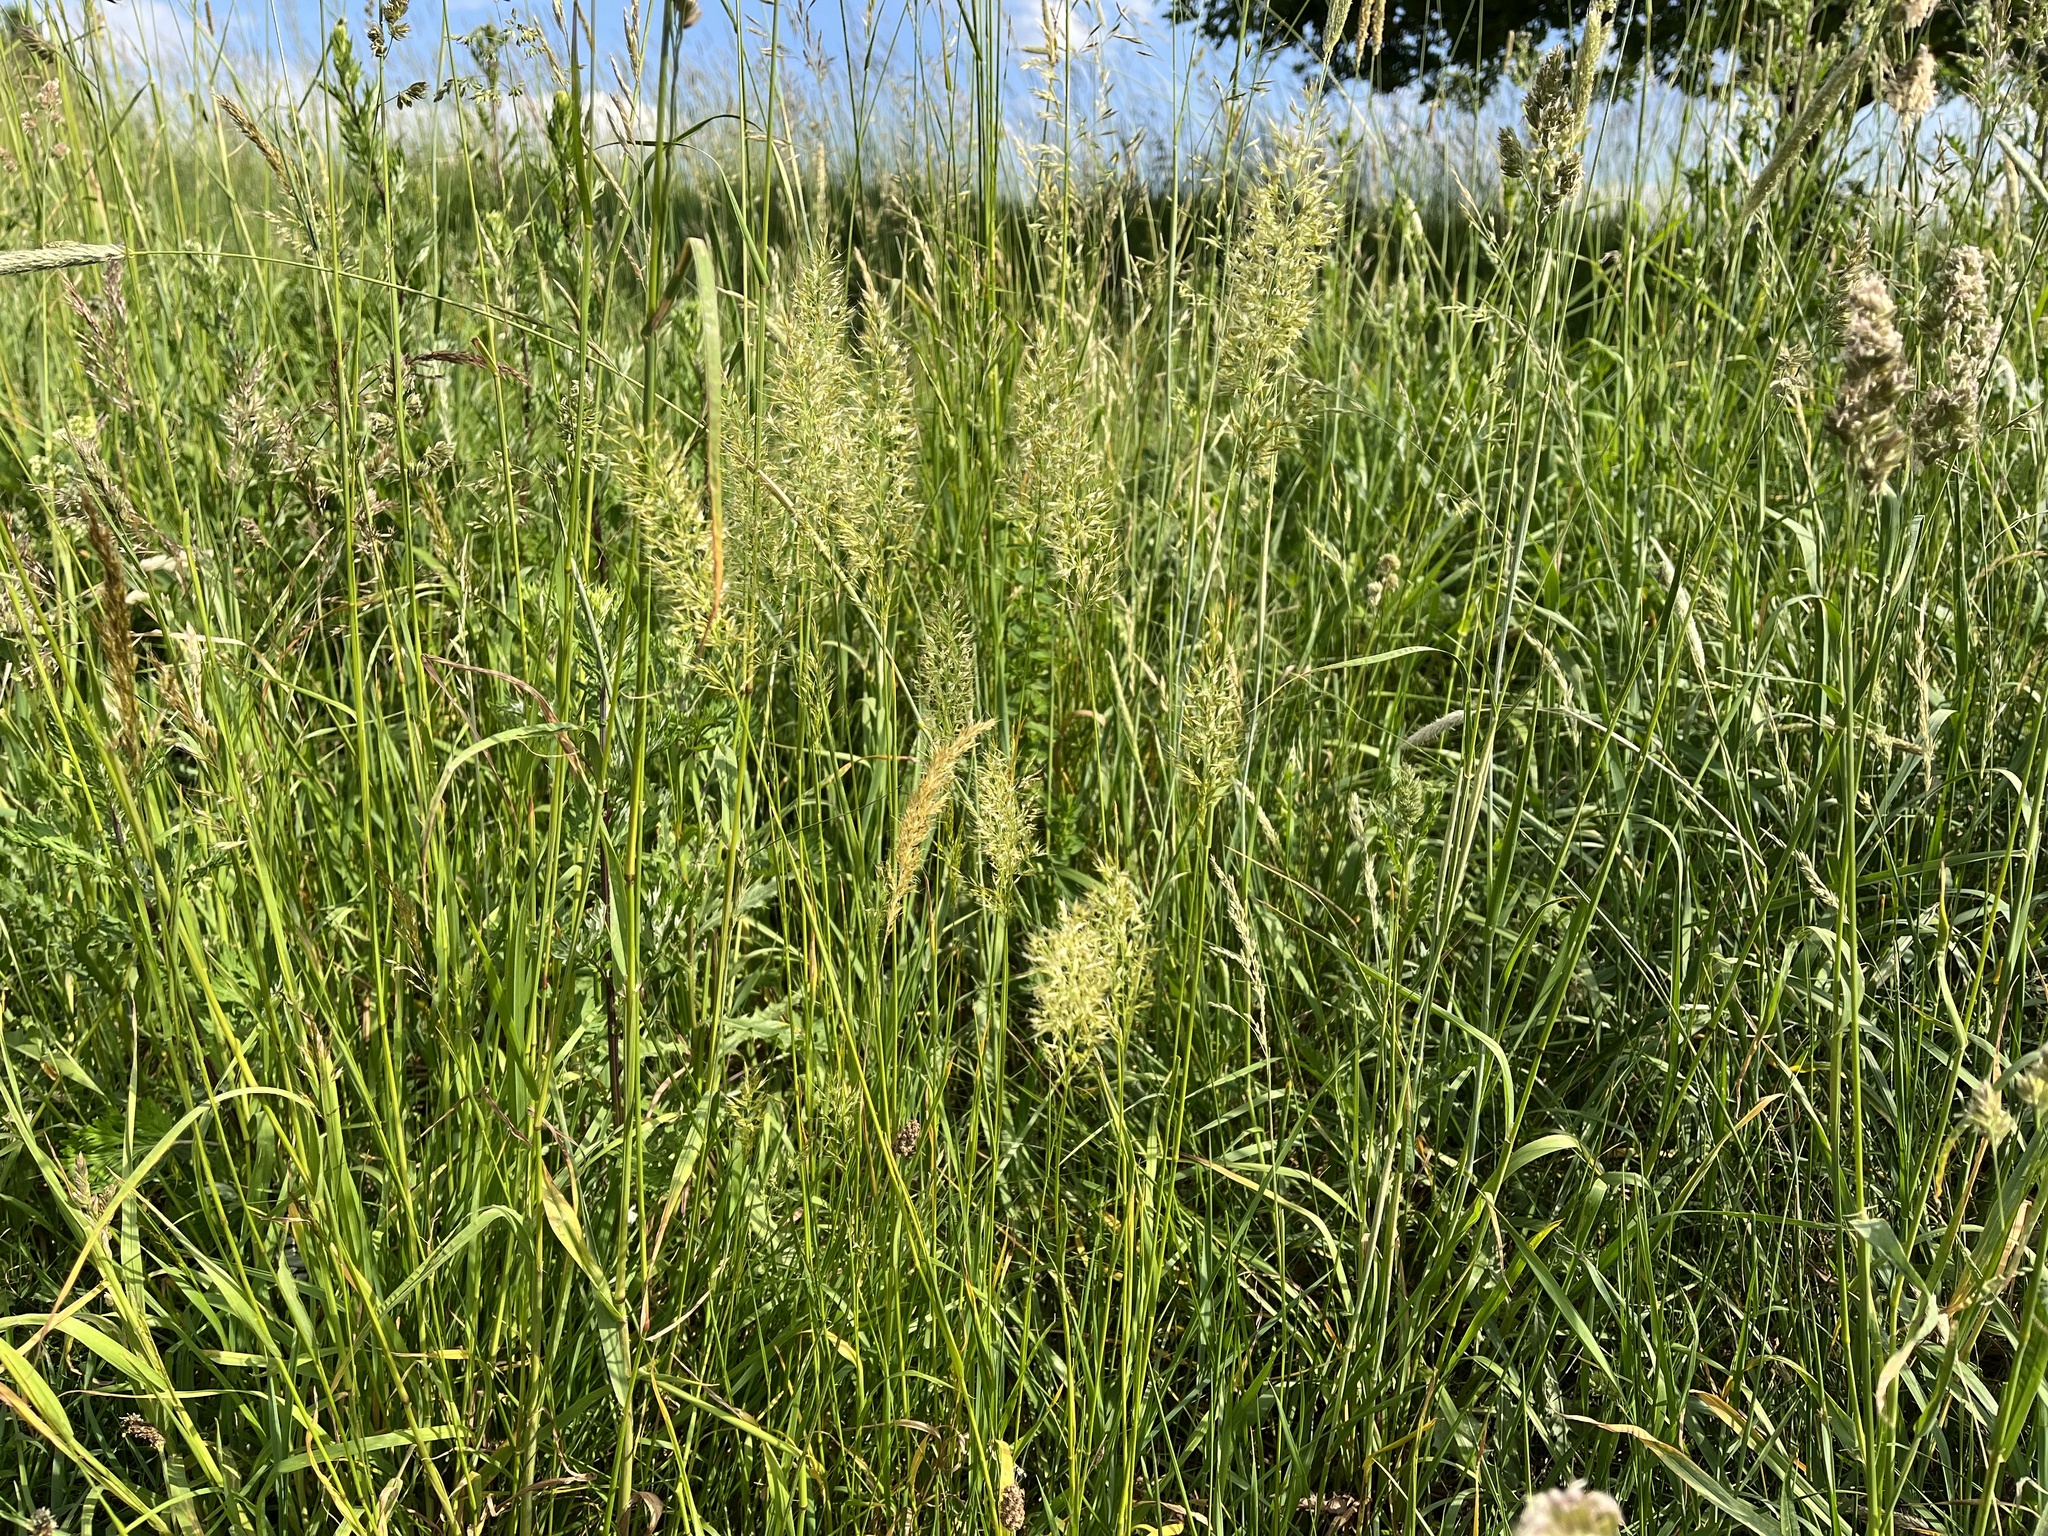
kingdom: Plantae
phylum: Tracheophyta
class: Liliopsida
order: Poales
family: Poaceae
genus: Trisetum
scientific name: Trisetum flavescens
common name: Yellow oat-grass
